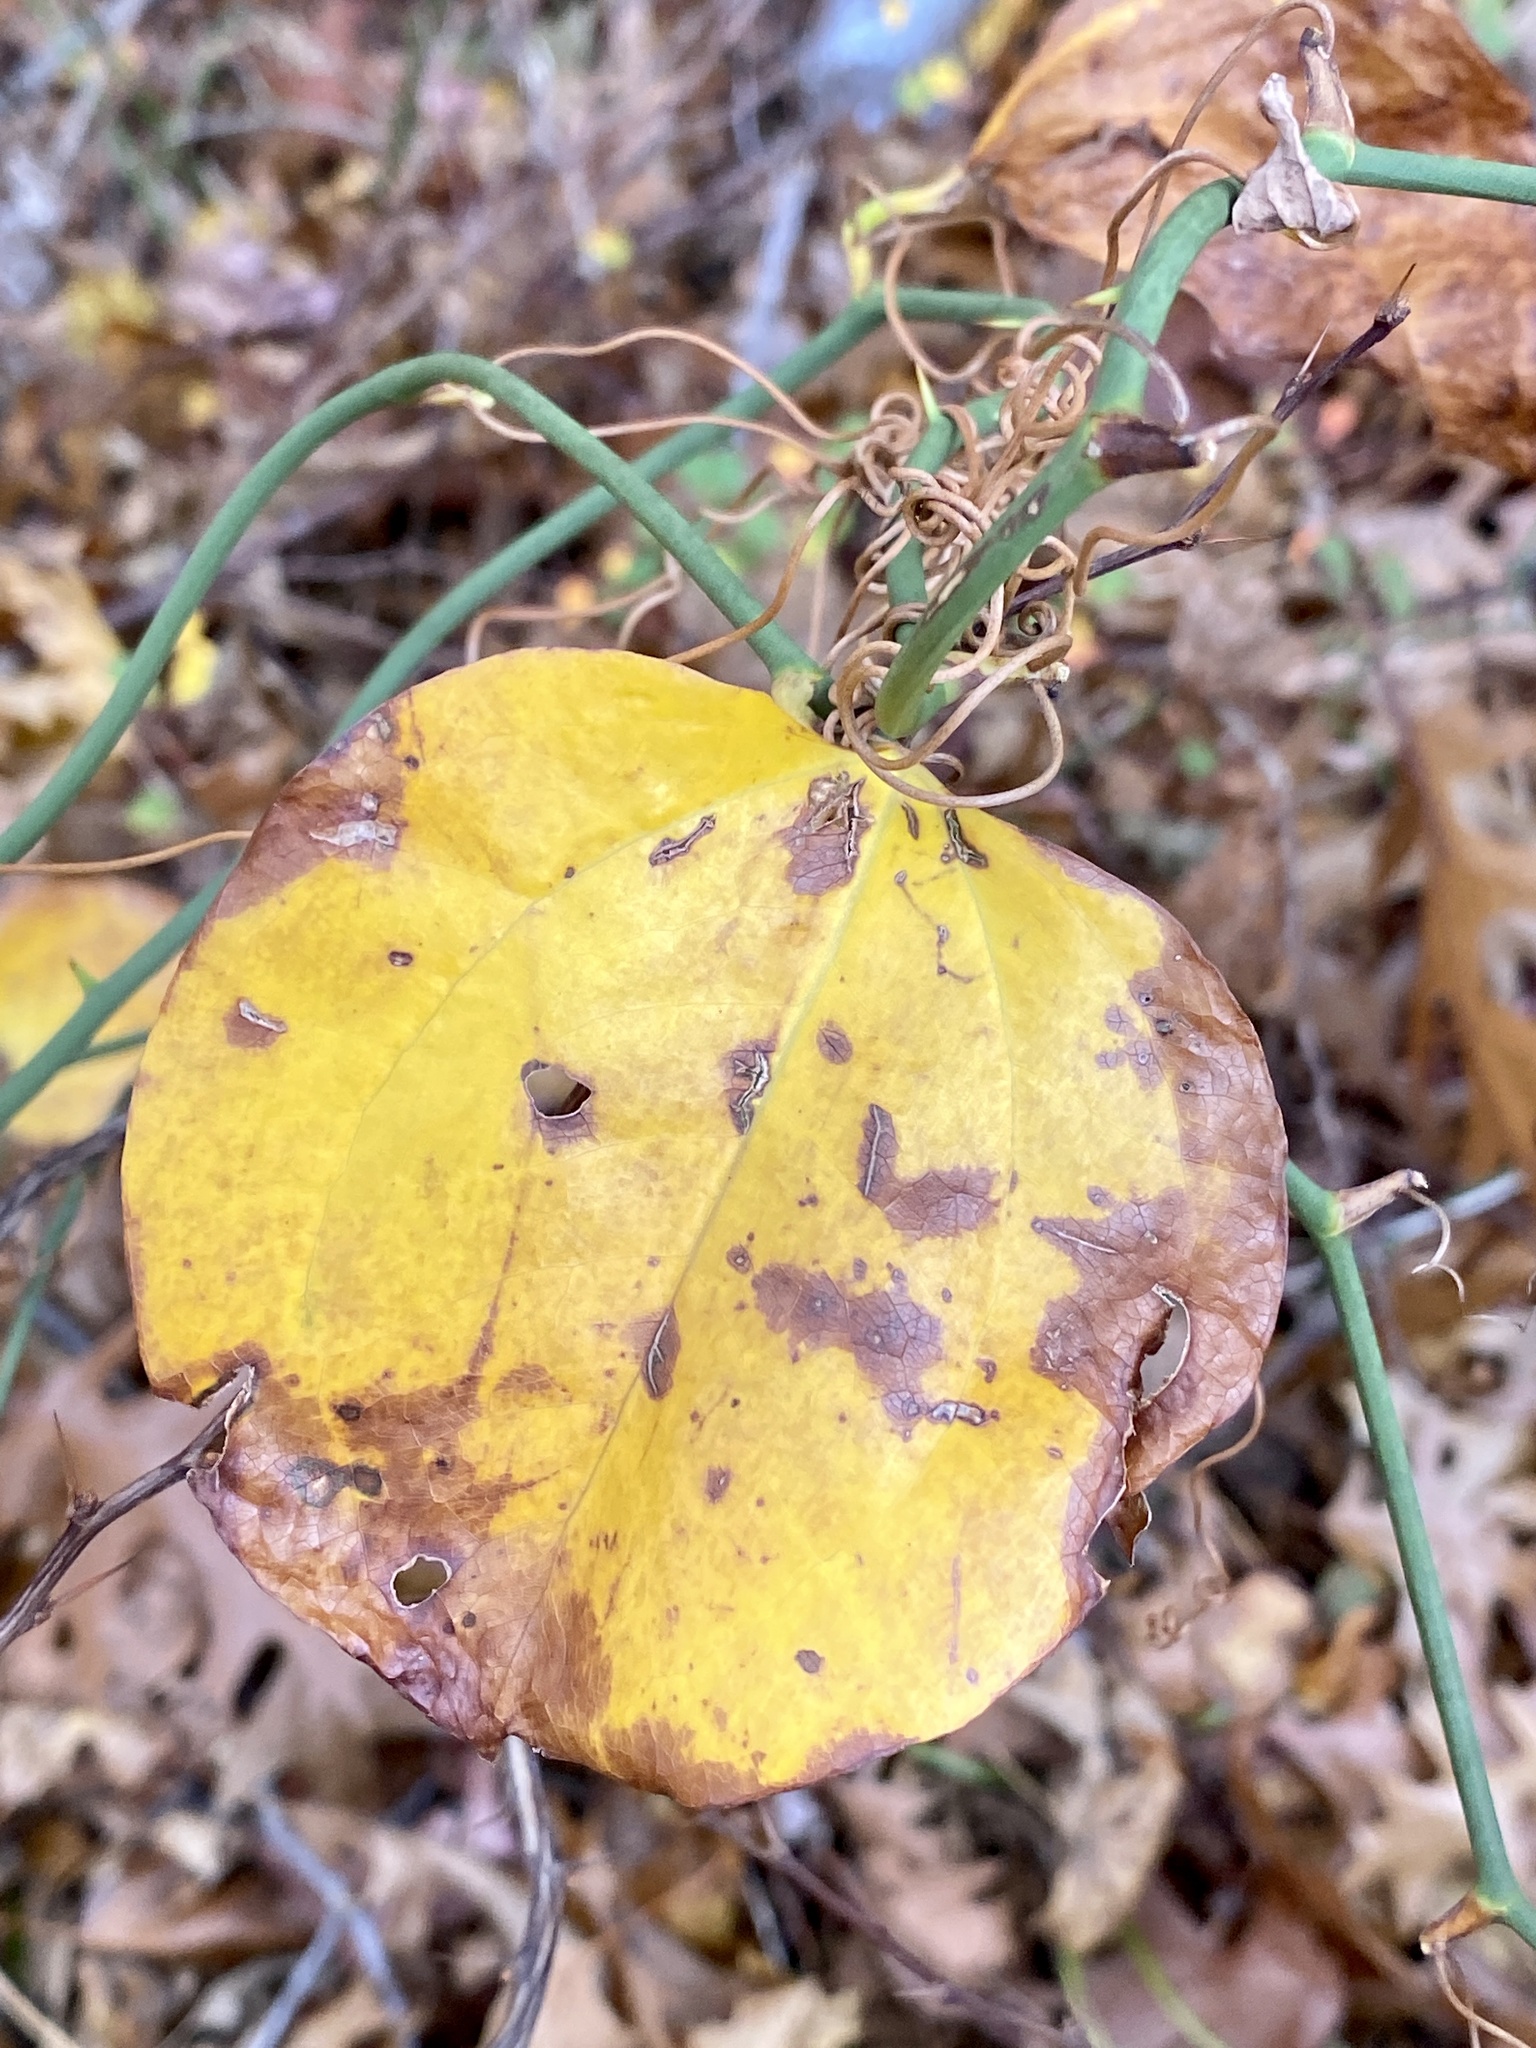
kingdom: Plantae
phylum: Tracheophyta
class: Liliopsida
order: Liliales
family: Smilacaceae
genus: Smilax
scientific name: Smilax rotundifolia
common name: Bullbriar
